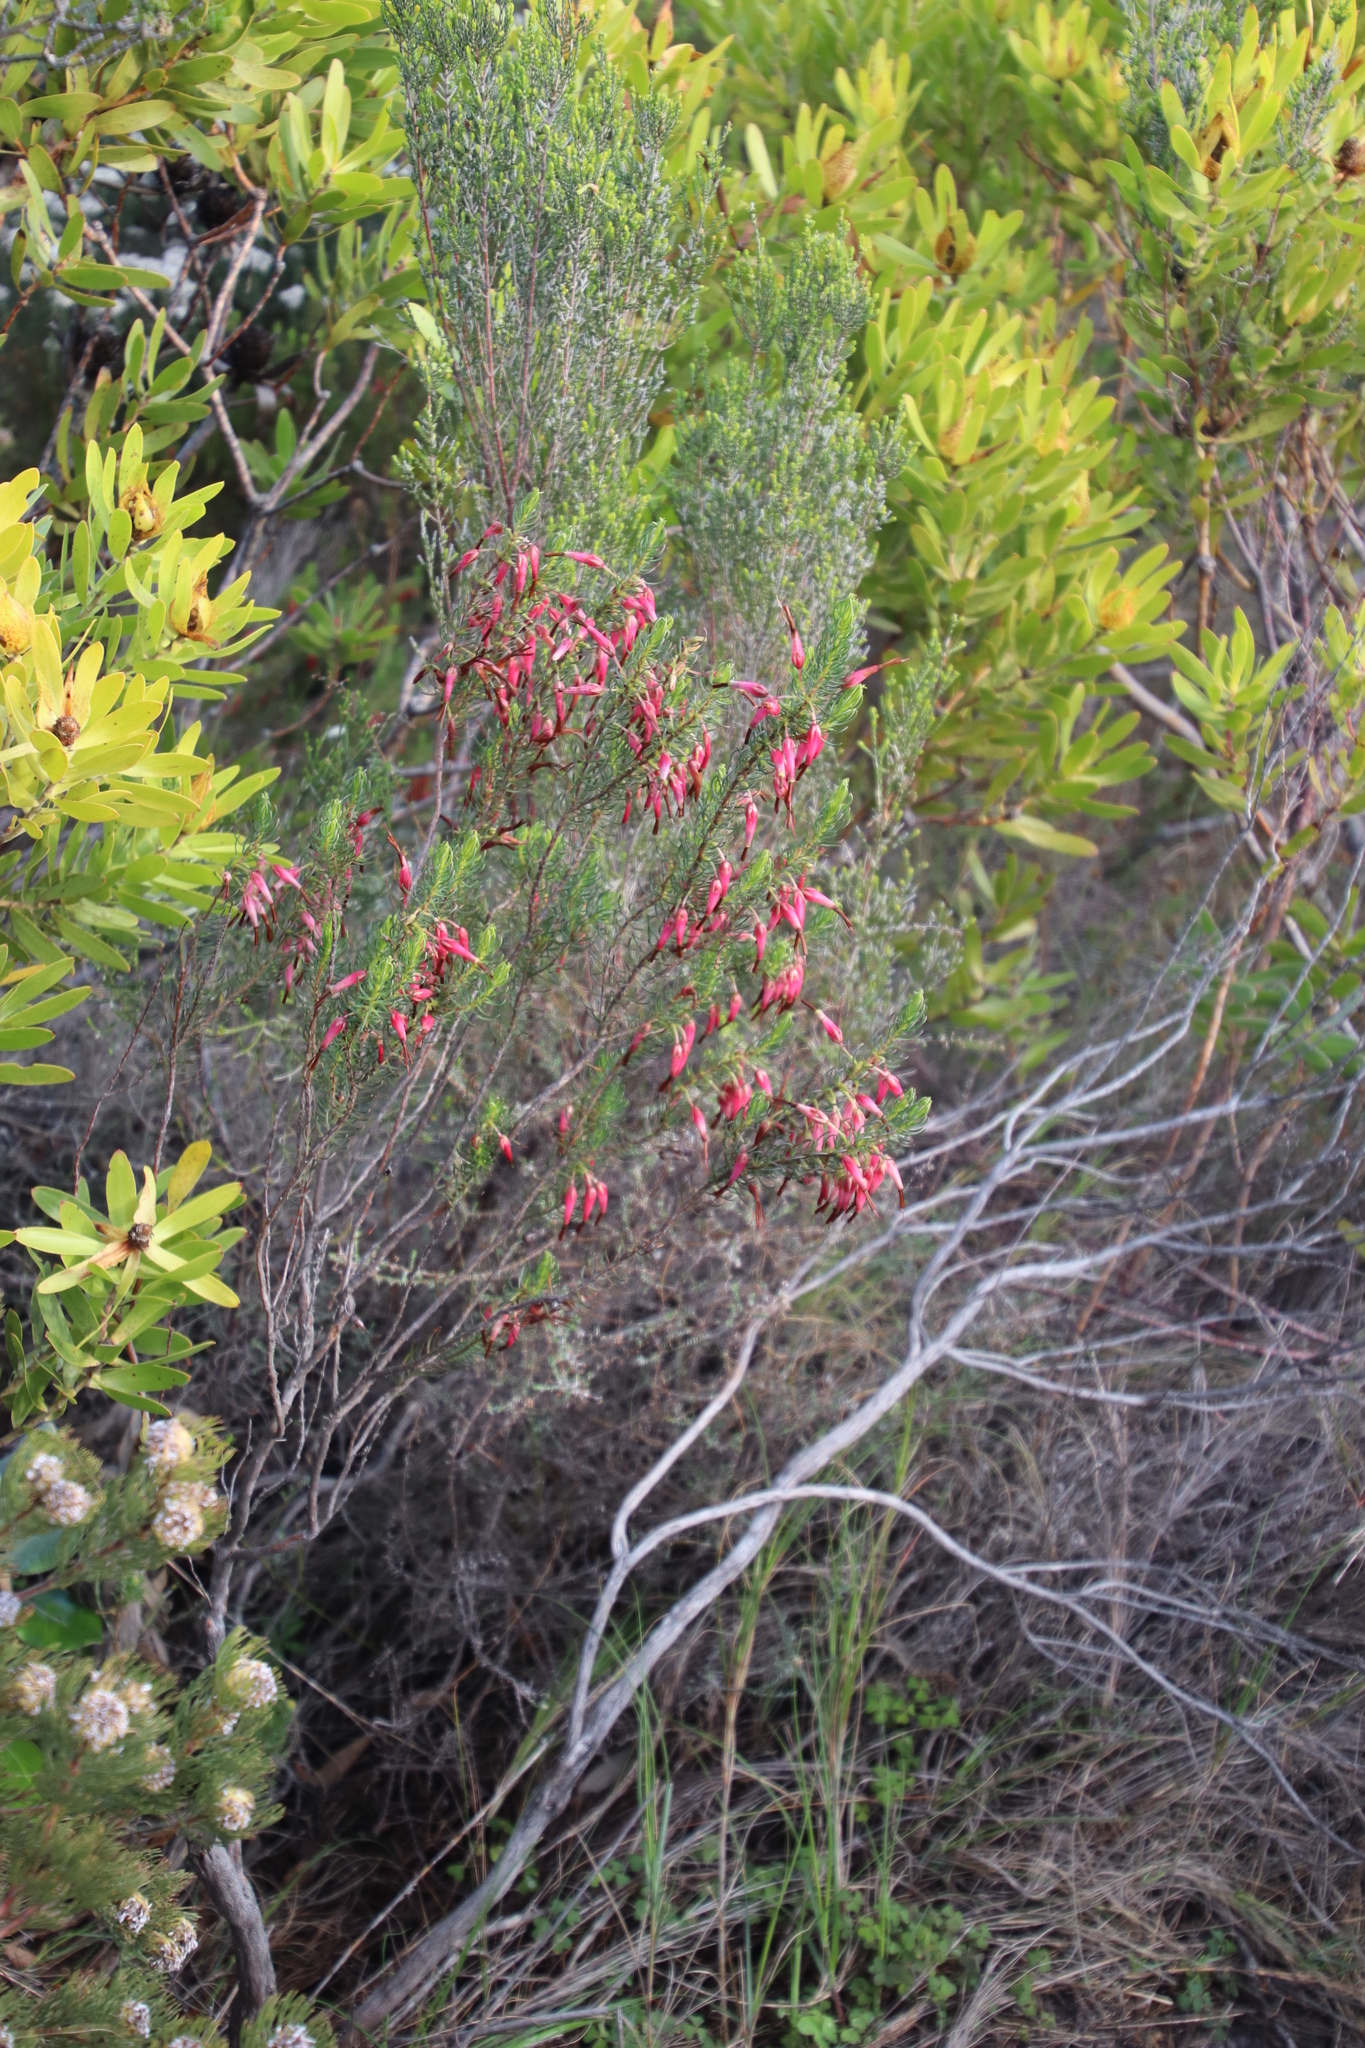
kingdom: Plantae
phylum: Tracheophyta
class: Magnoliopsida
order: Ericales
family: Ericaceae
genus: Erica
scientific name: Erica plukenetii
